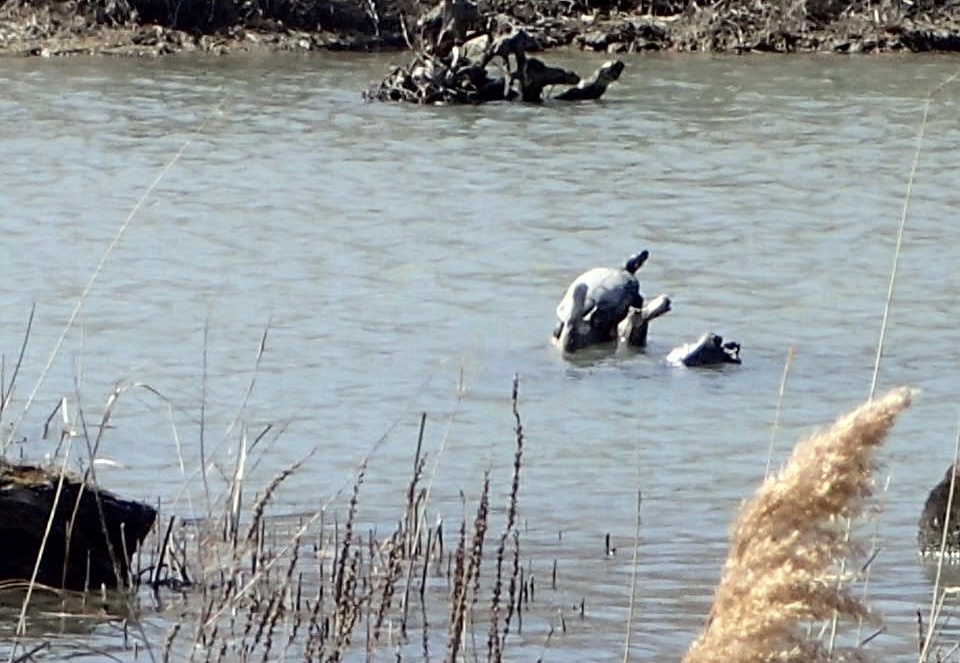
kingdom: Animalia
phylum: Chordata
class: Testudines
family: Emydidae
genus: Trachemys
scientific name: Trachemys scripta
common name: Slider
